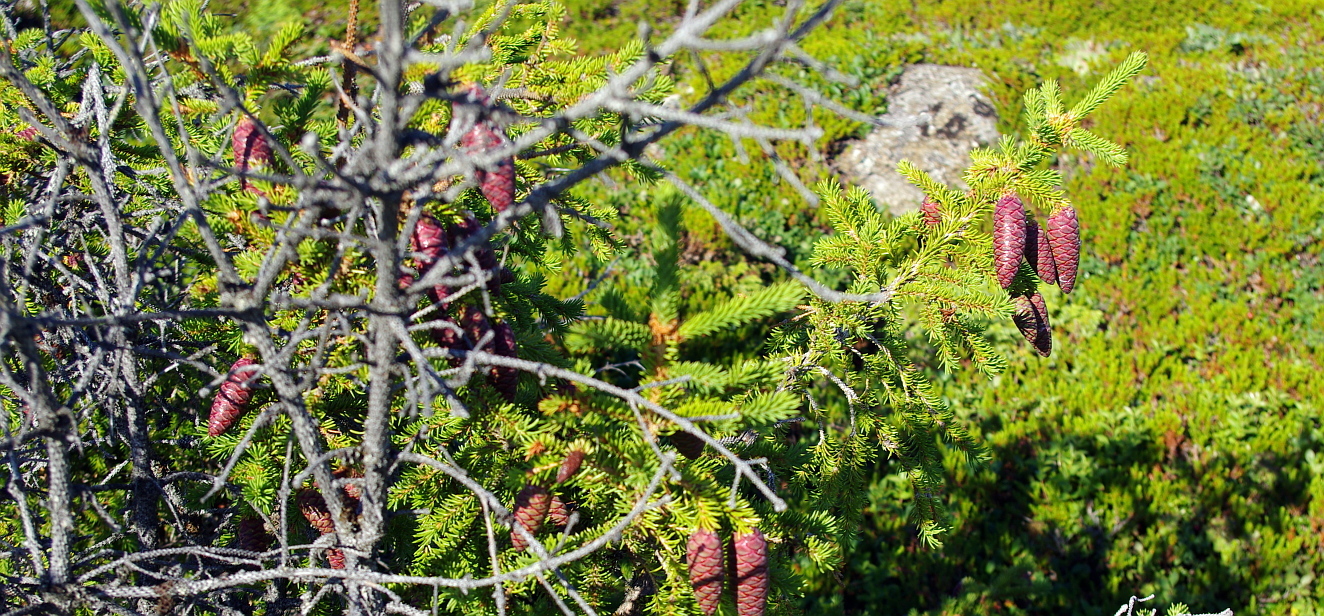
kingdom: Plantae
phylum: Tracheophyta
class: Pinopsida
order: Pinales
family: Pinaceae
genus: Picea
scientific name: Picea obovata
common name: Siberian spruce
